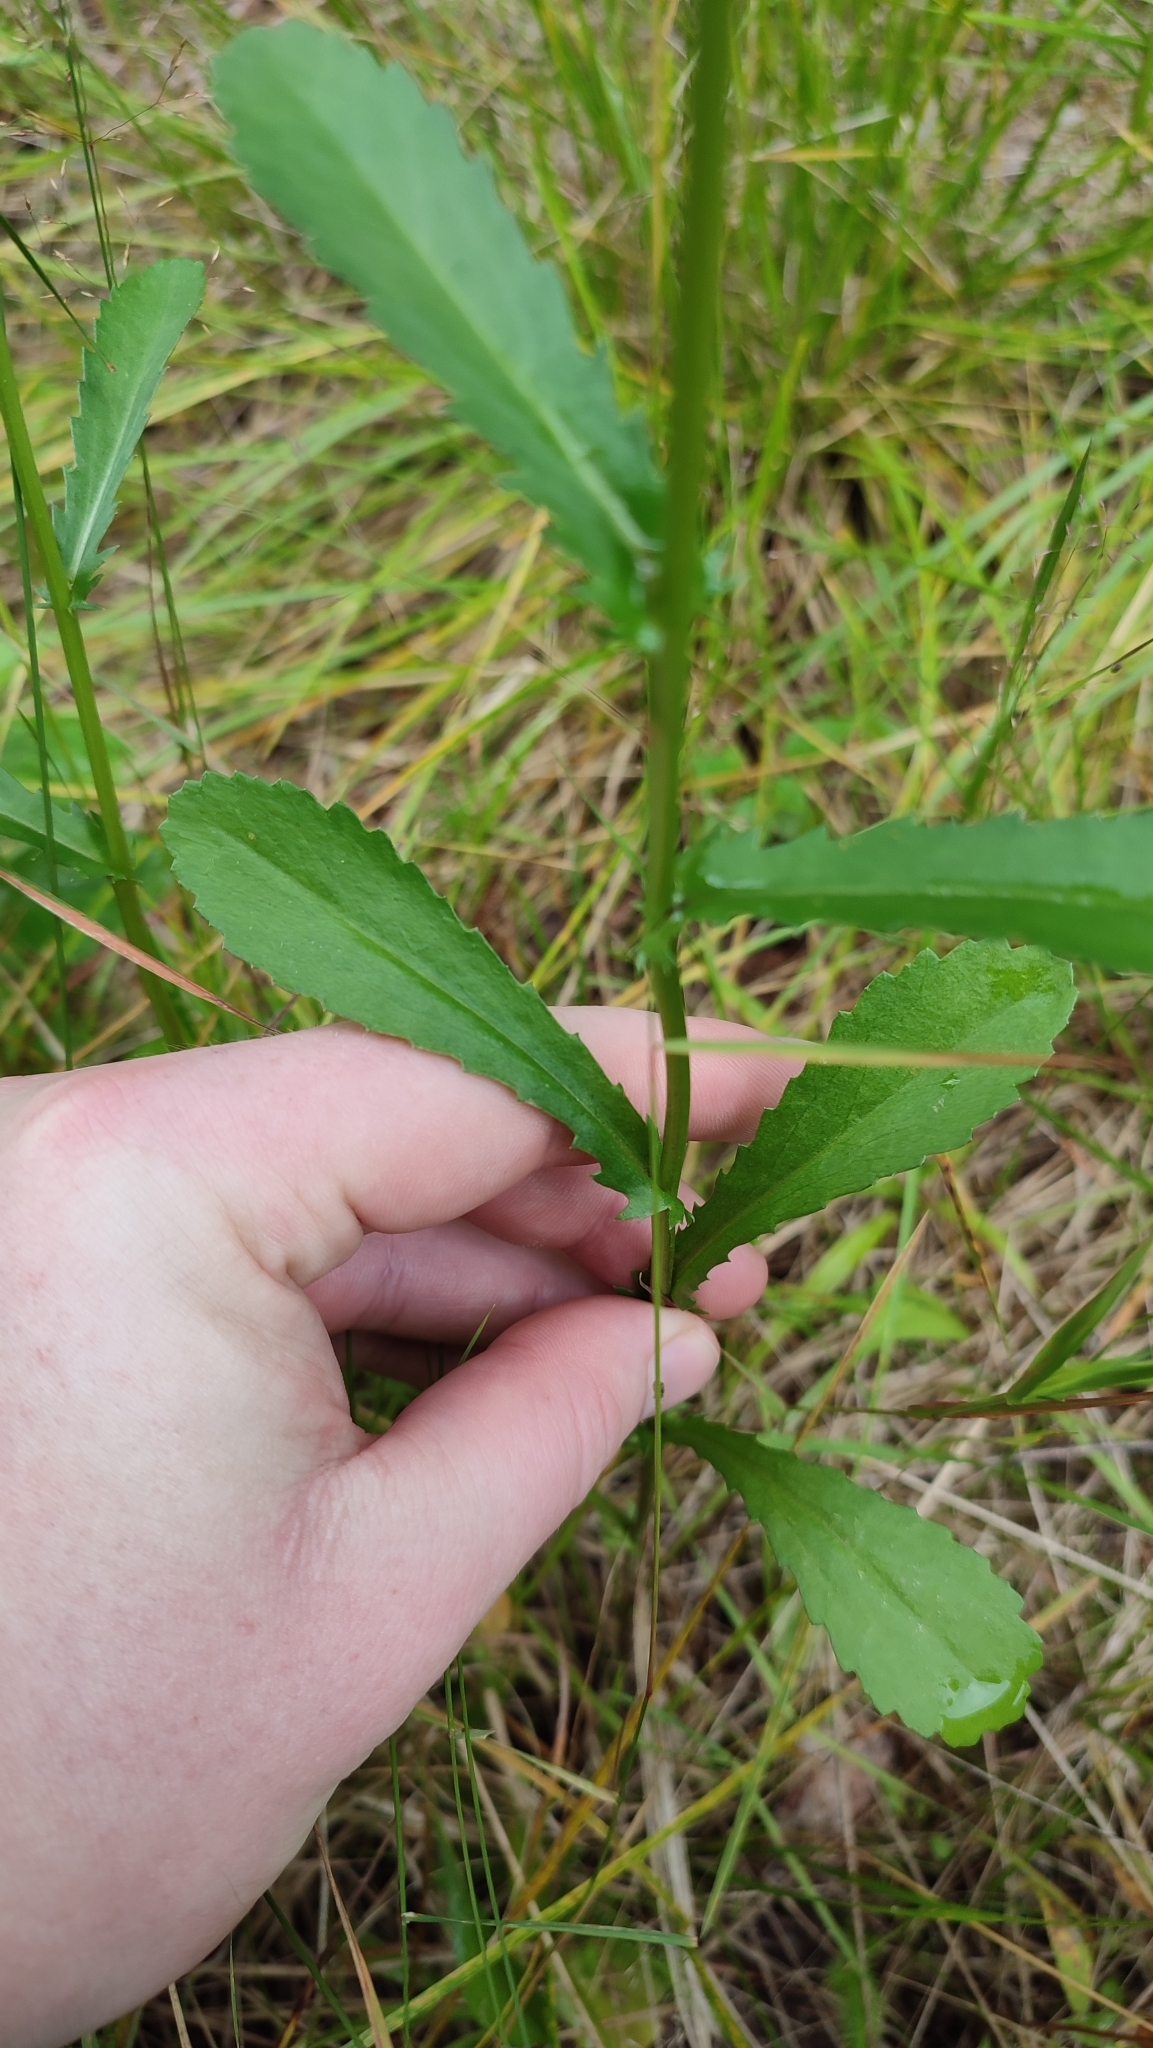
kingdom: Plantae
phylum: Tracheophyta
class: Magnoliopsida
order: Asterales
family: Asteraceae
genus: Leucanthemum
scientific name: Leucanthemum ircutianum
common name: Daisy
